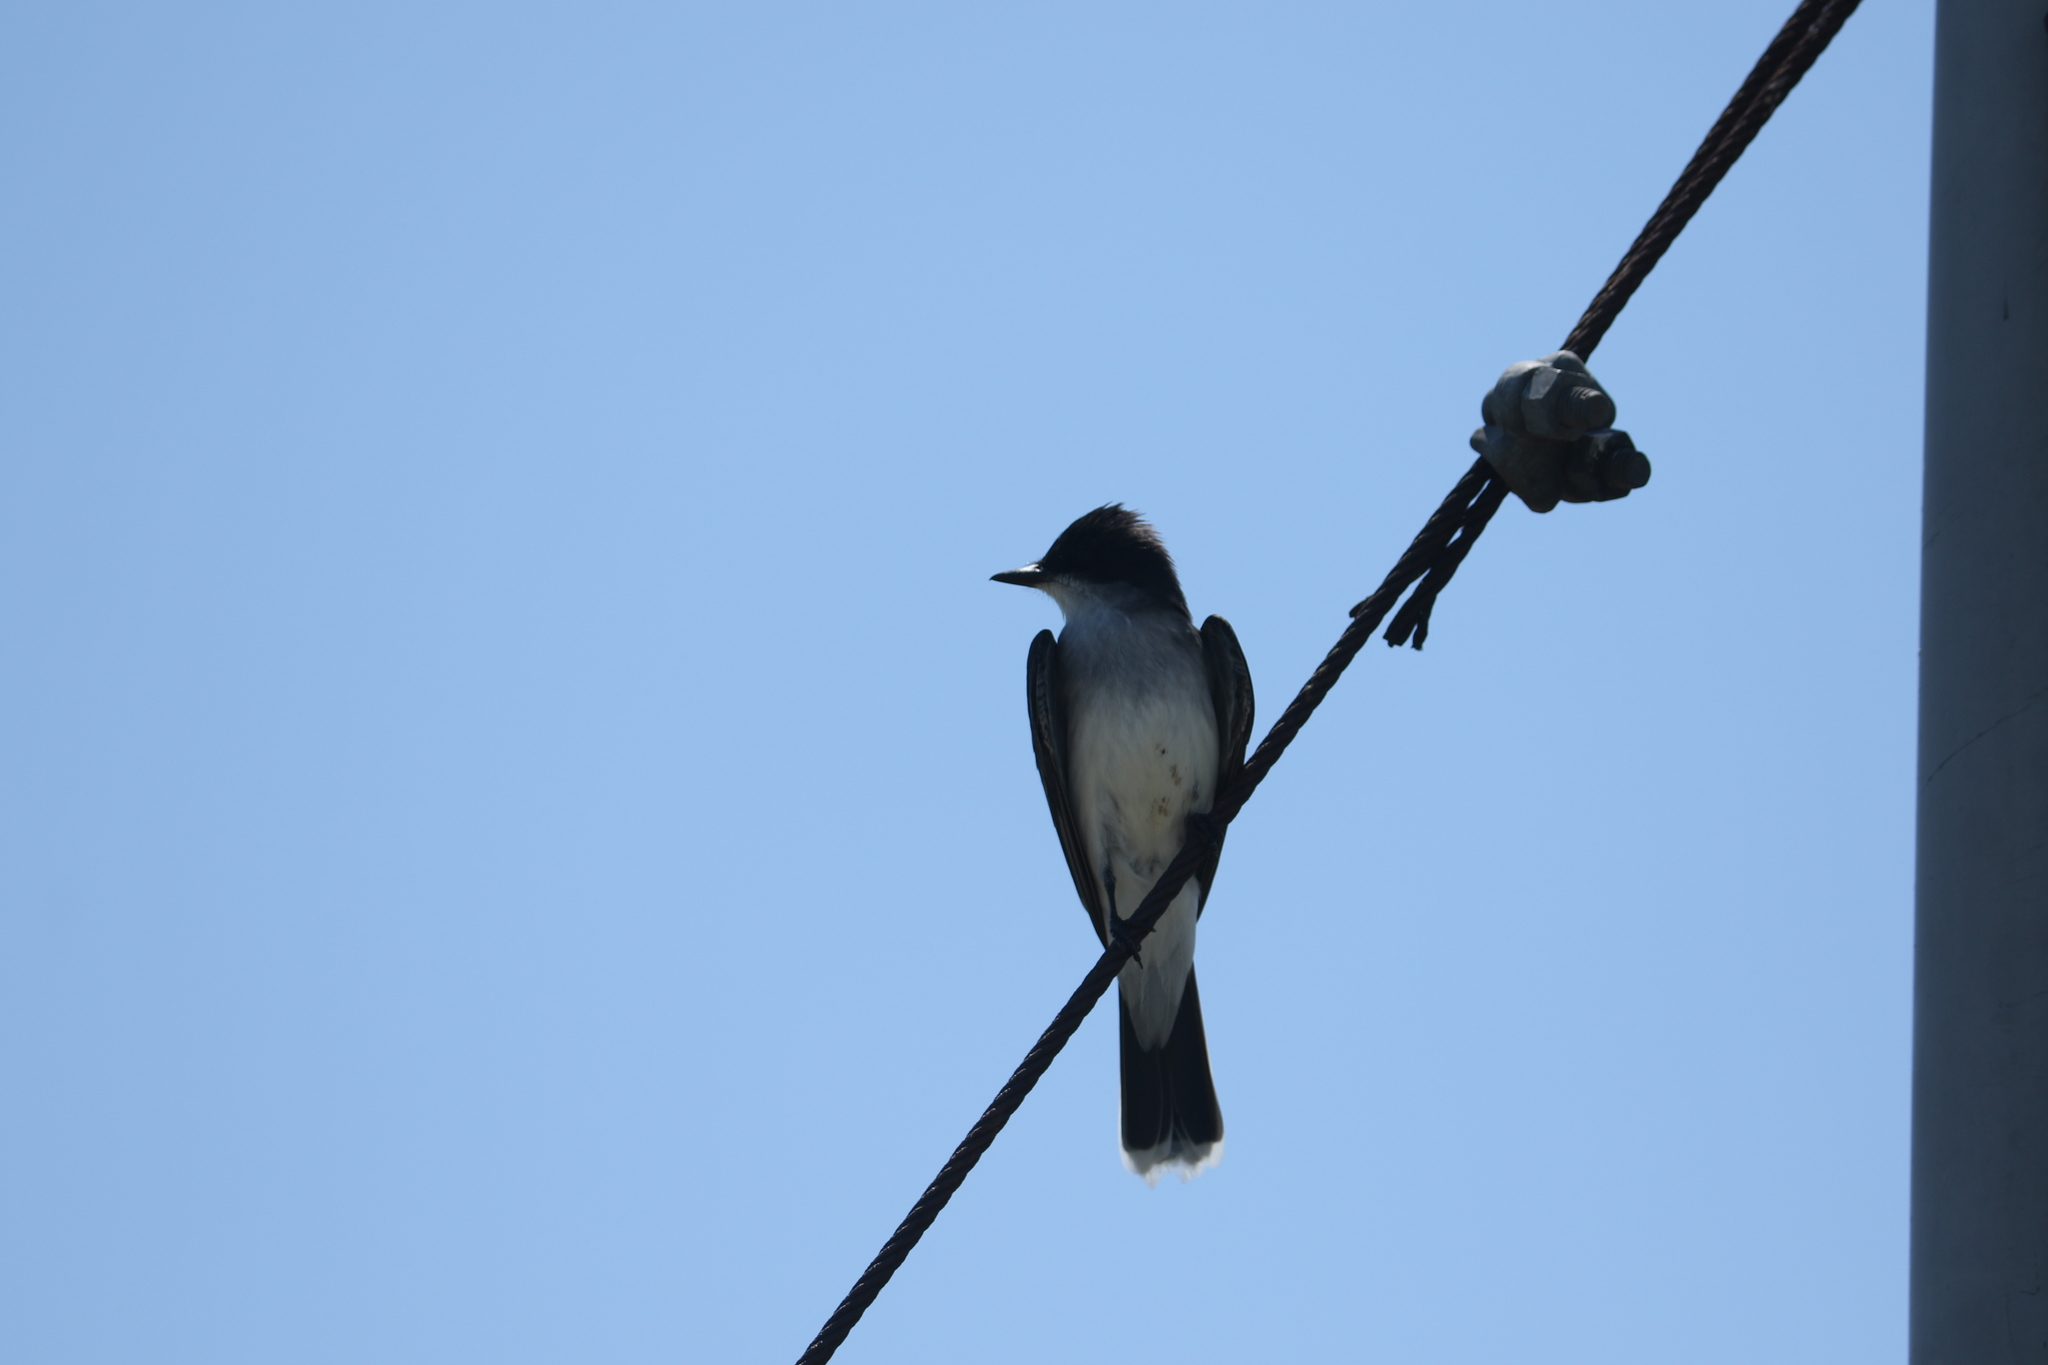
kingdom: Animalia
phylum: Chordata
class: Aves
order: Passeriformes
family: Tyrannidae
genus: Tyrannus
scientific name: Tyrannus tyrannus
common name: Eastern kingbird
